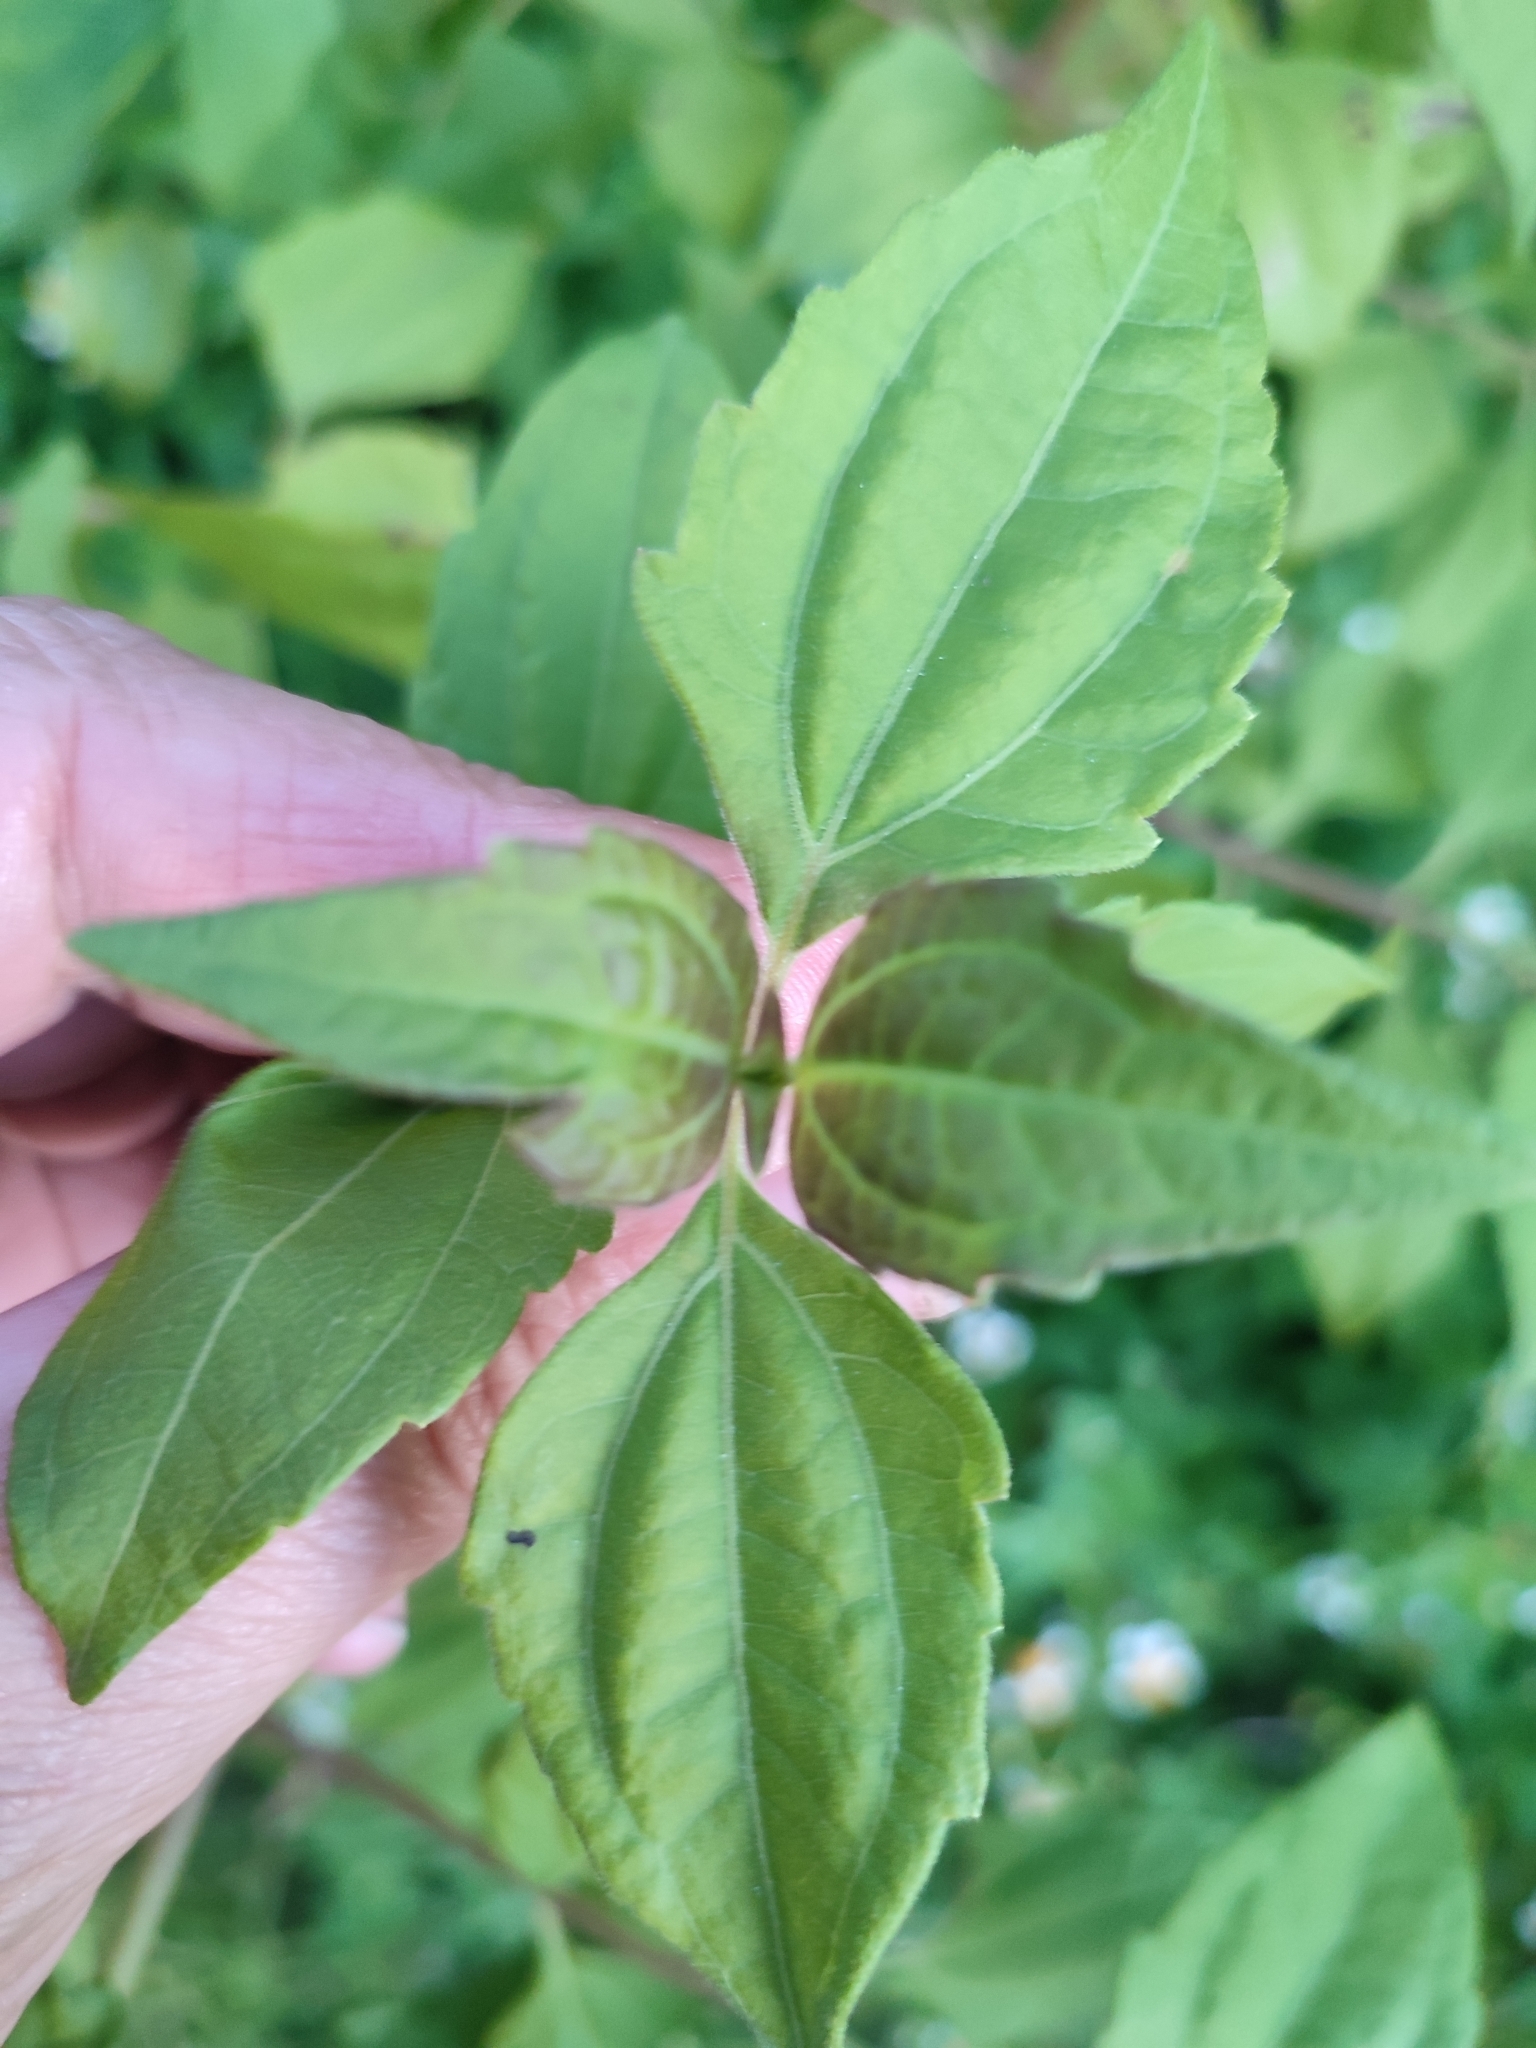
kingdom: Plantae
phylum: Tracheophyta
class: Magnoliopsida
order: Asterales
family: Asteraceae
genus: Chromolaena
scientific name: Chromolaena odorata
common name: Siamweed
